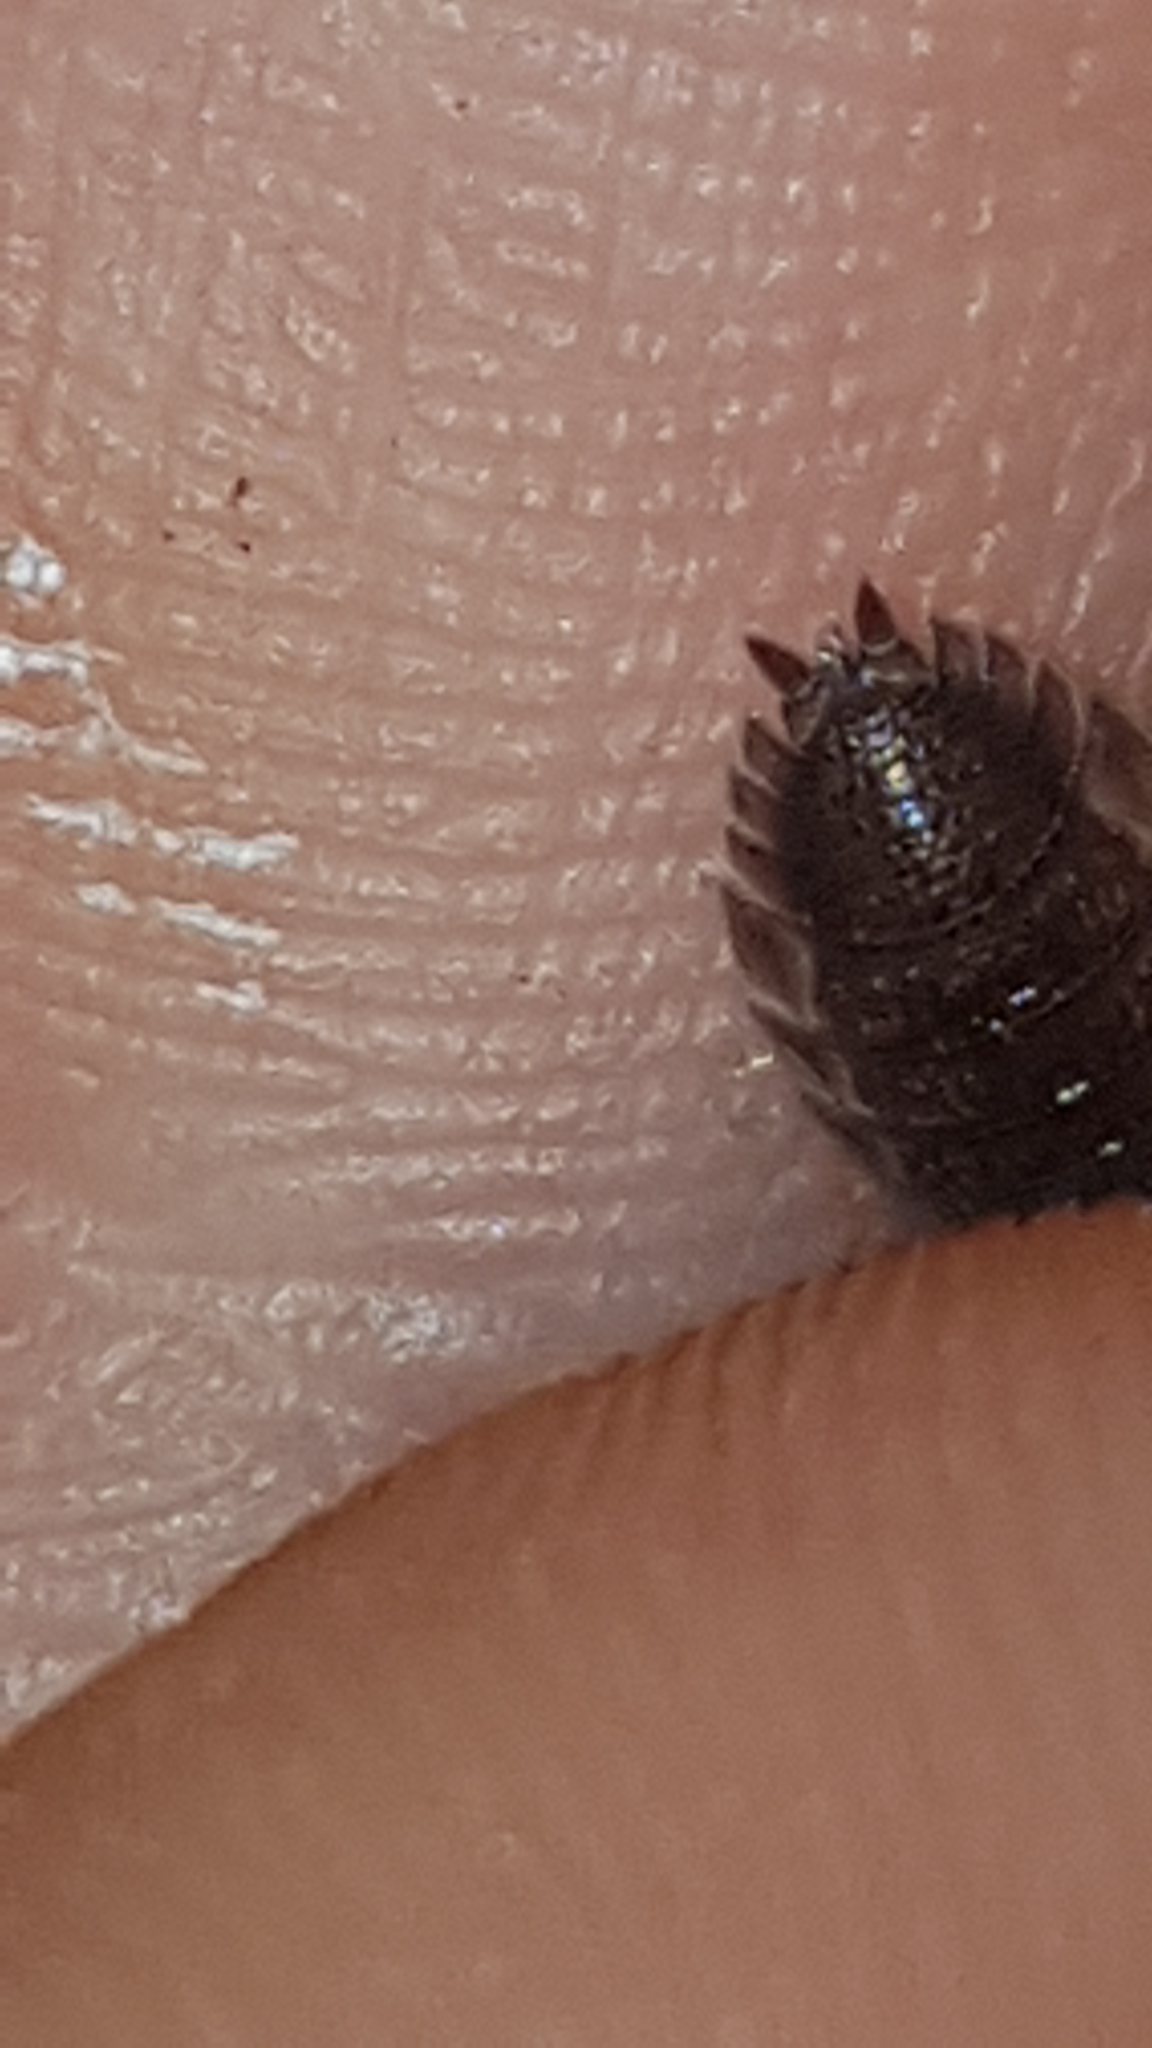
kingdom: Animalia
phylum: Arthropoda
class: Malacostraca
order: Isopoda
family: Porcellionidae
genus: Porcellio
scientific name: Porcellio scaber
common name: Common rough woodlouse
